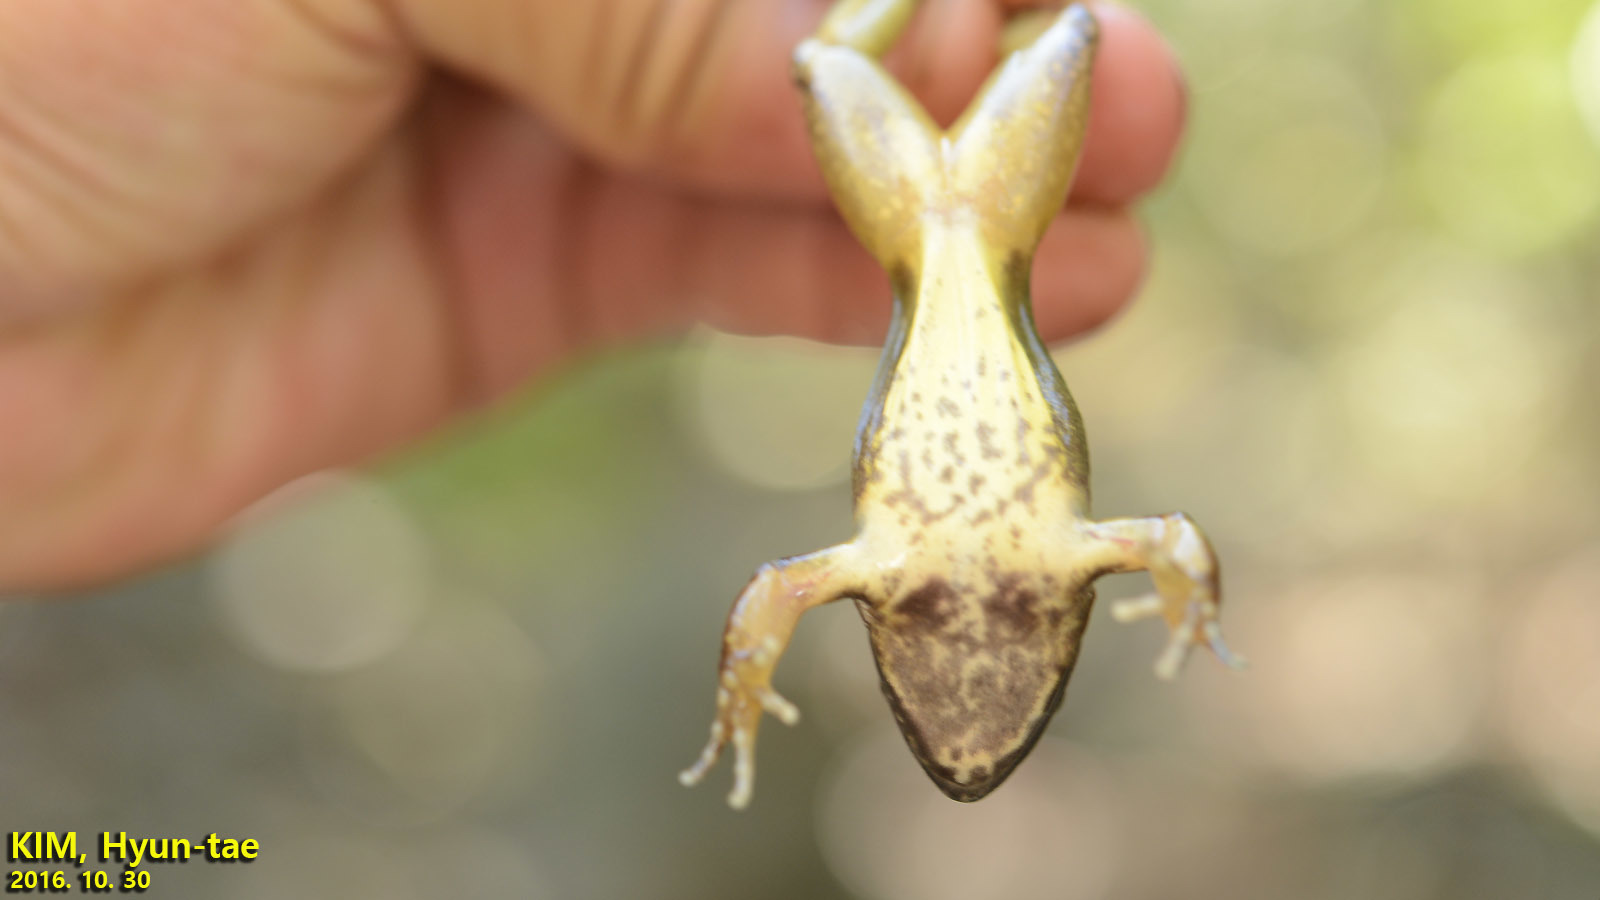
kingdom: Animalia
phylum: Chordata
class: Amphibia
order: Anura
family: Ranidae
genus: Rana
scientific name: Rana uenoi
